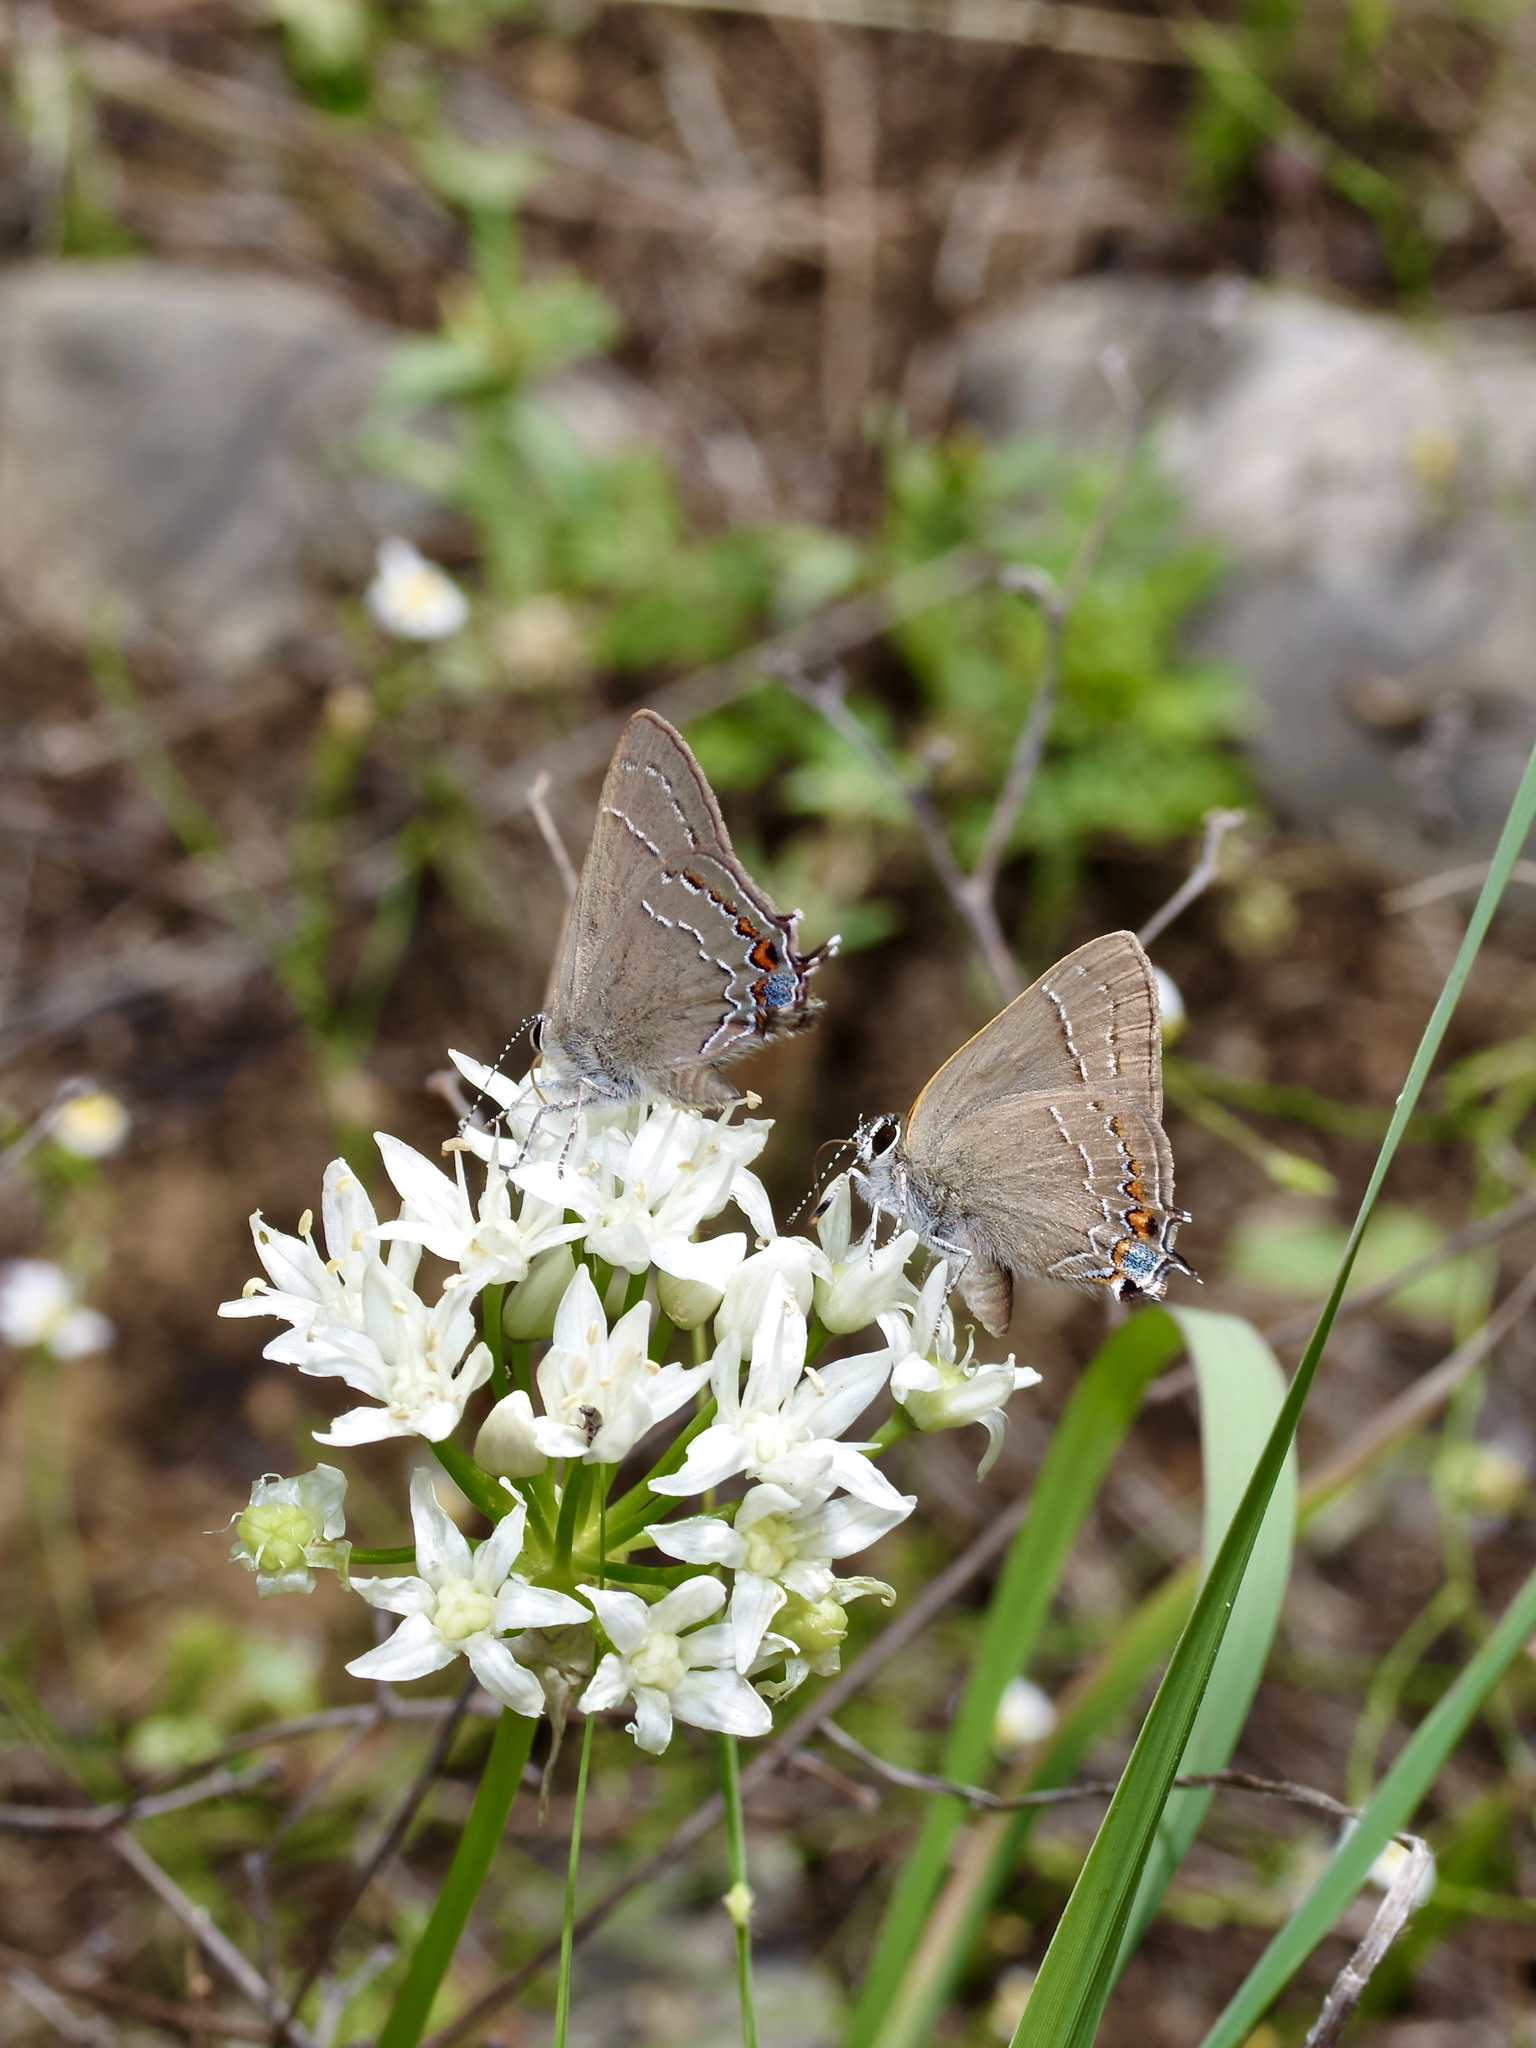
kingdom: Animalia
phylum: Arthropoda
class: Insecta
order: Lepidoptera
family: Lycaenidae
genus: Fixsenia
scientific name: Fixsenia favonius
